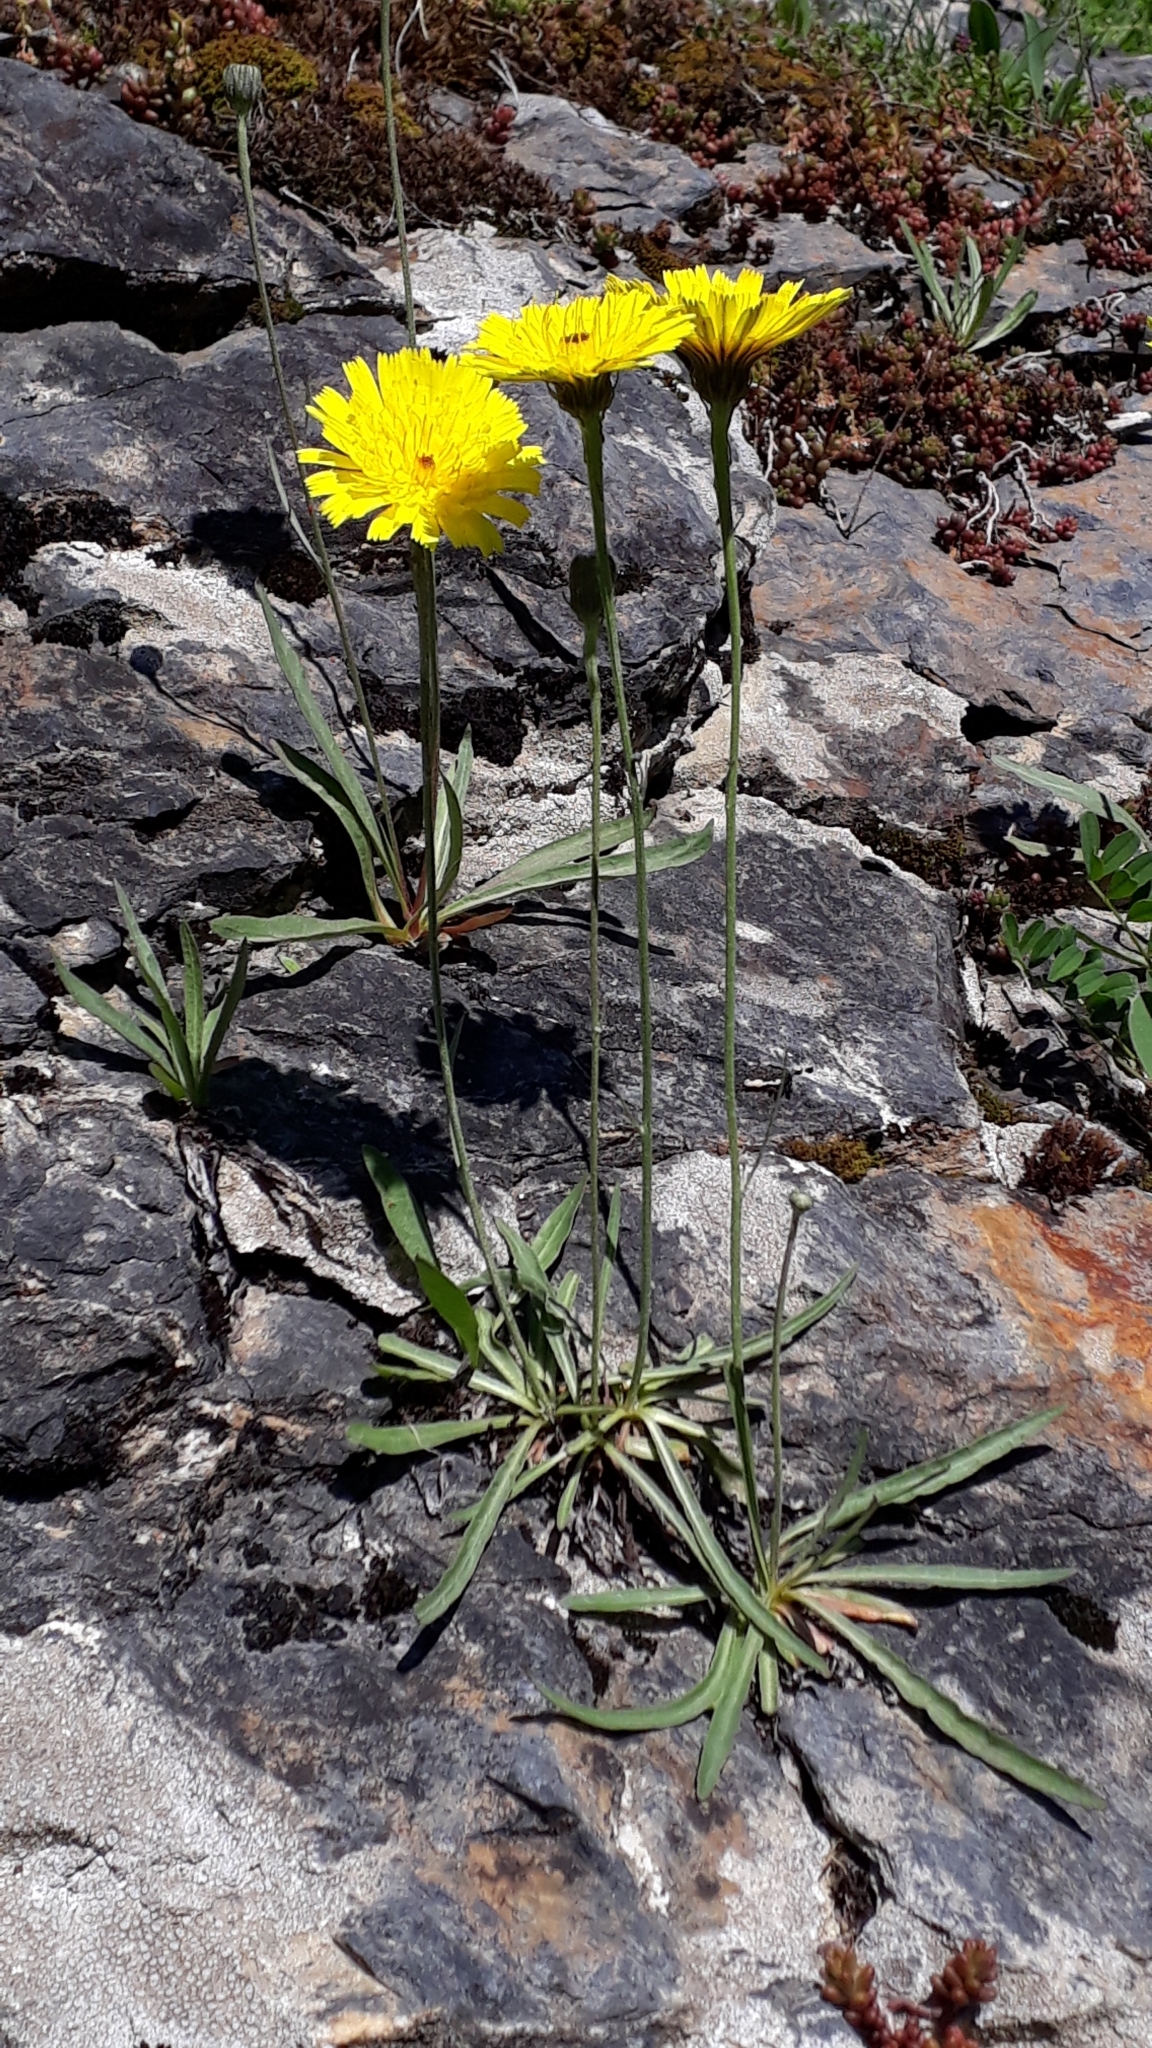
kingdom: Plantae
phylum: Tracheophyta
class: Magnoliopsida
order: Asterales
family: Asteraceae
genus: Tolpis
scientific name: Tolpis staticifolia
